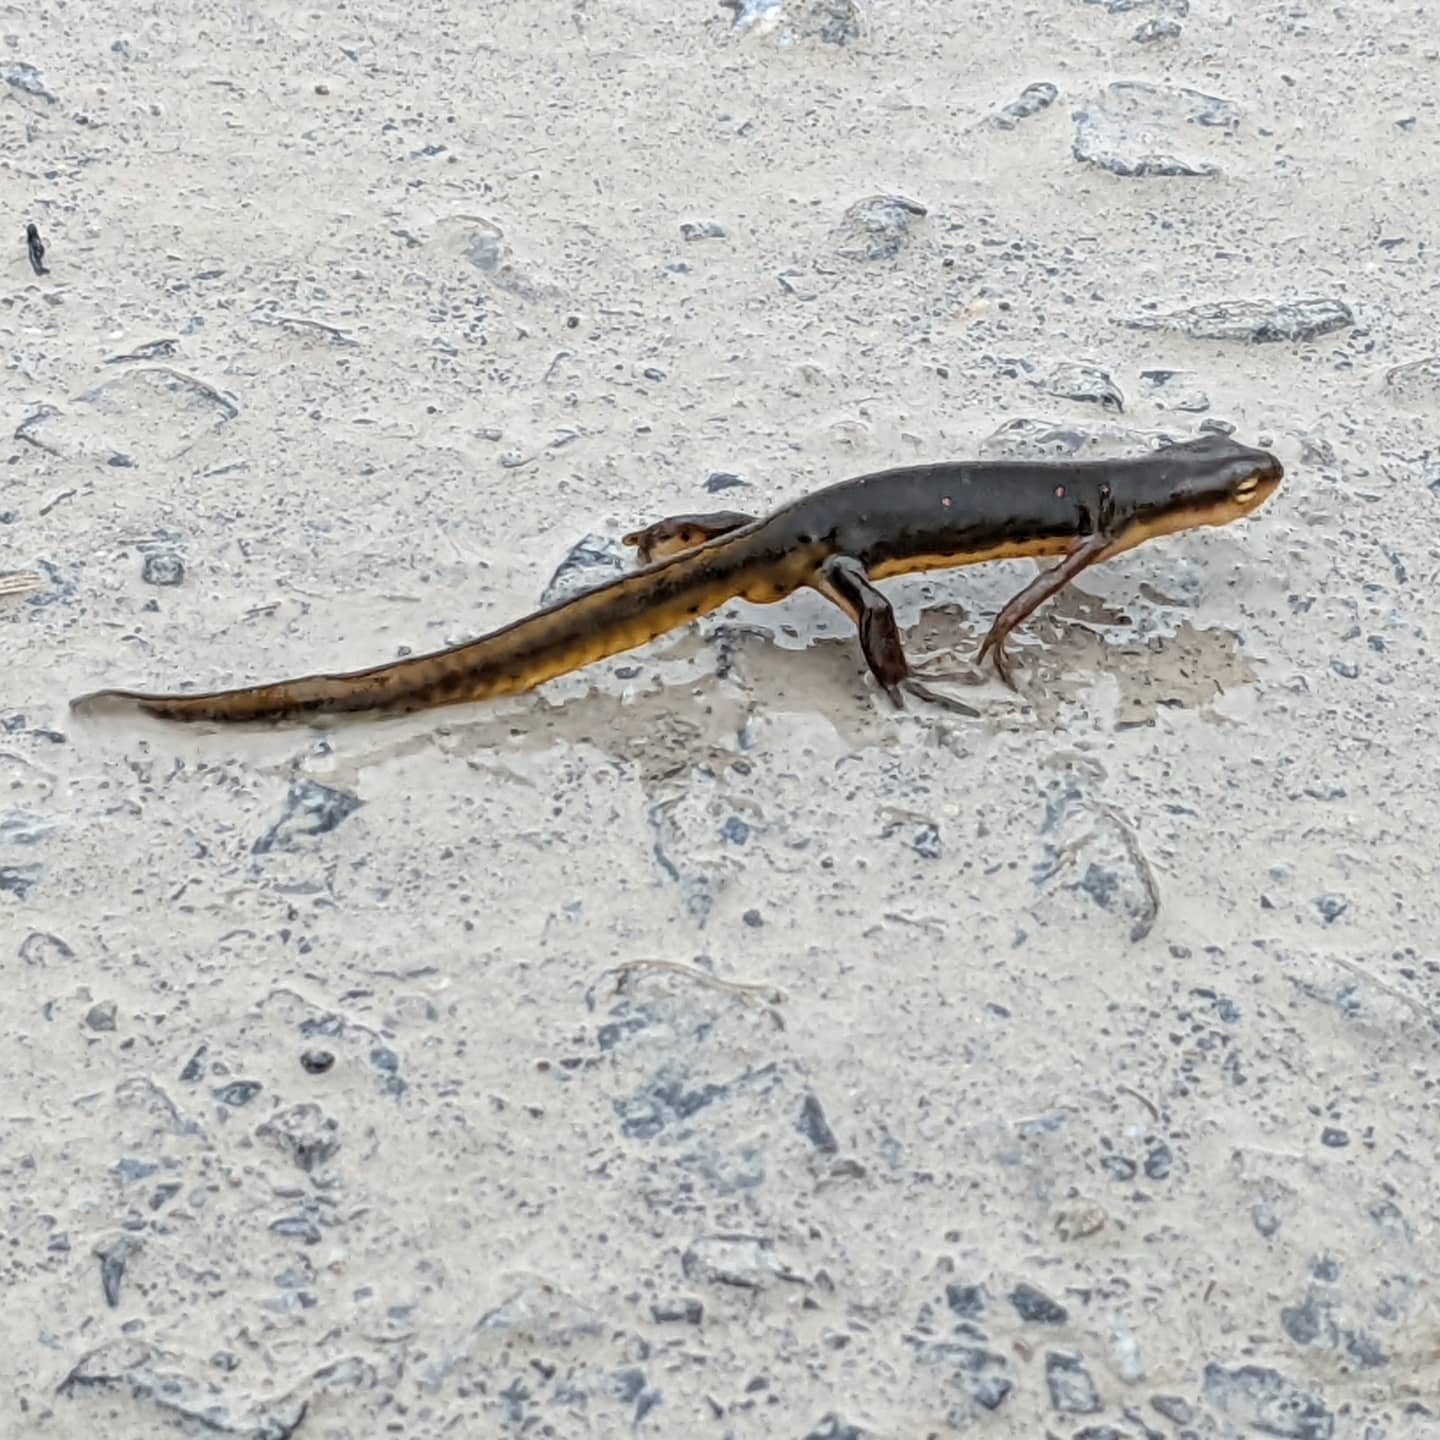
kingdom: Animalia
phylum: Chordata
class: Amphibia
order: Caudata
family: Salamandridae
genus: Notophthalmus
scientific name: Notophthalmus viridescens
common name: Eastern newt
